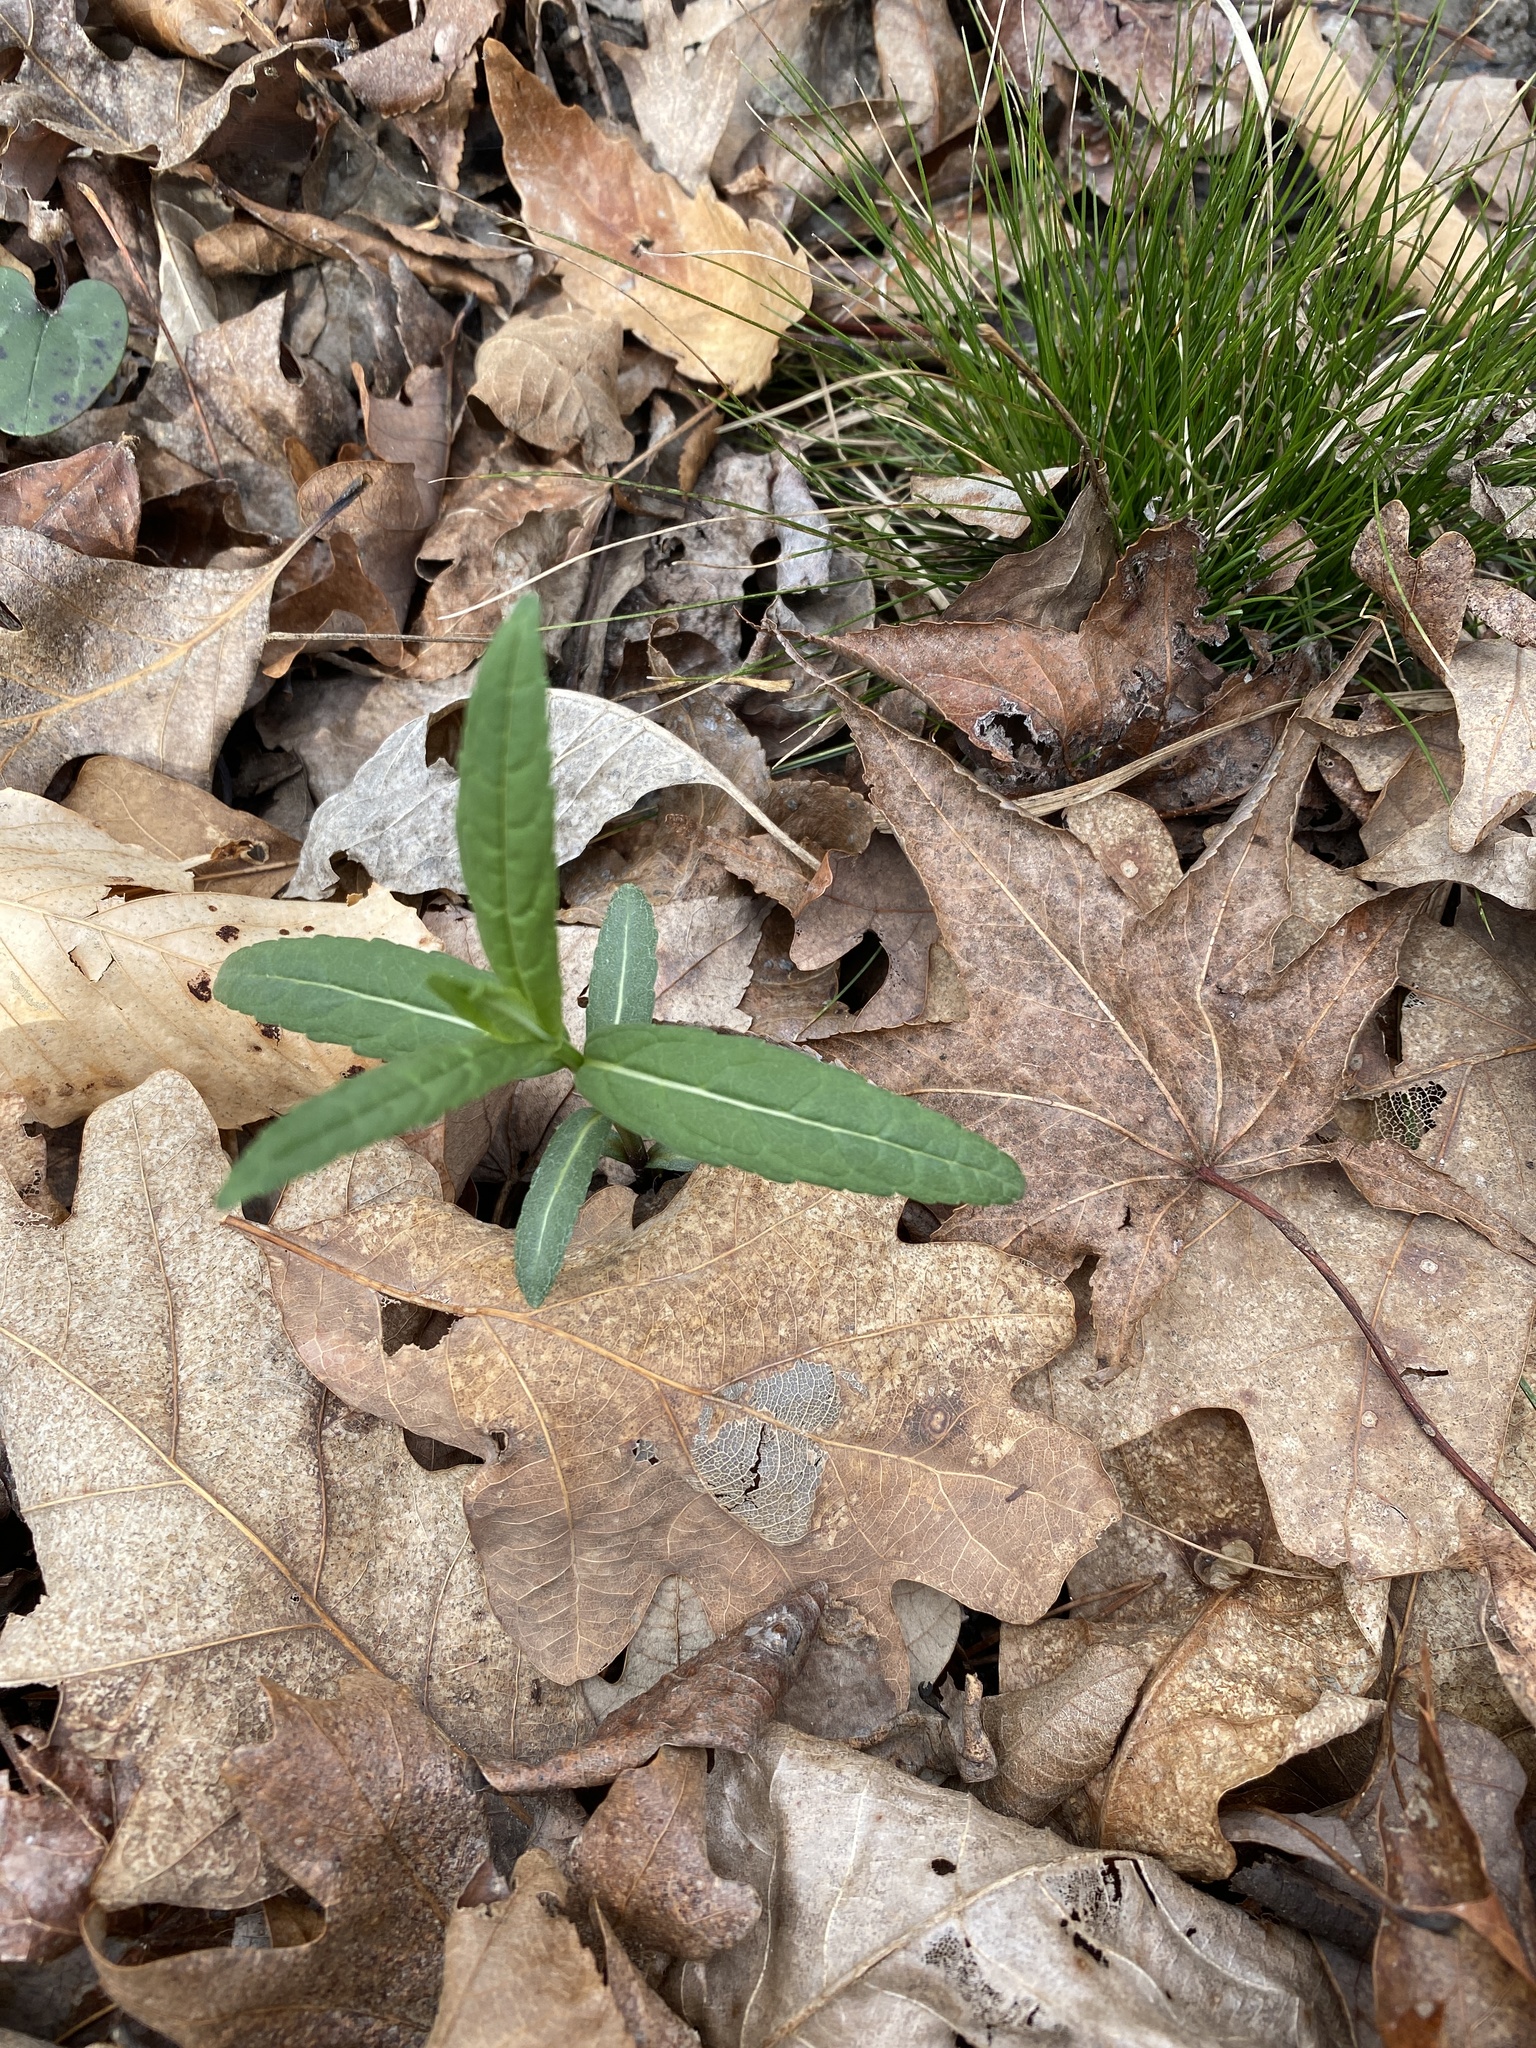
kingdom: Plantae
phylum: Tracheophyta
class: Magnoliopsida
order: Lamiales
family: Plantaginaceae
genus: Chelone
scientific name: Chelone glabra
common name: Snakehead
